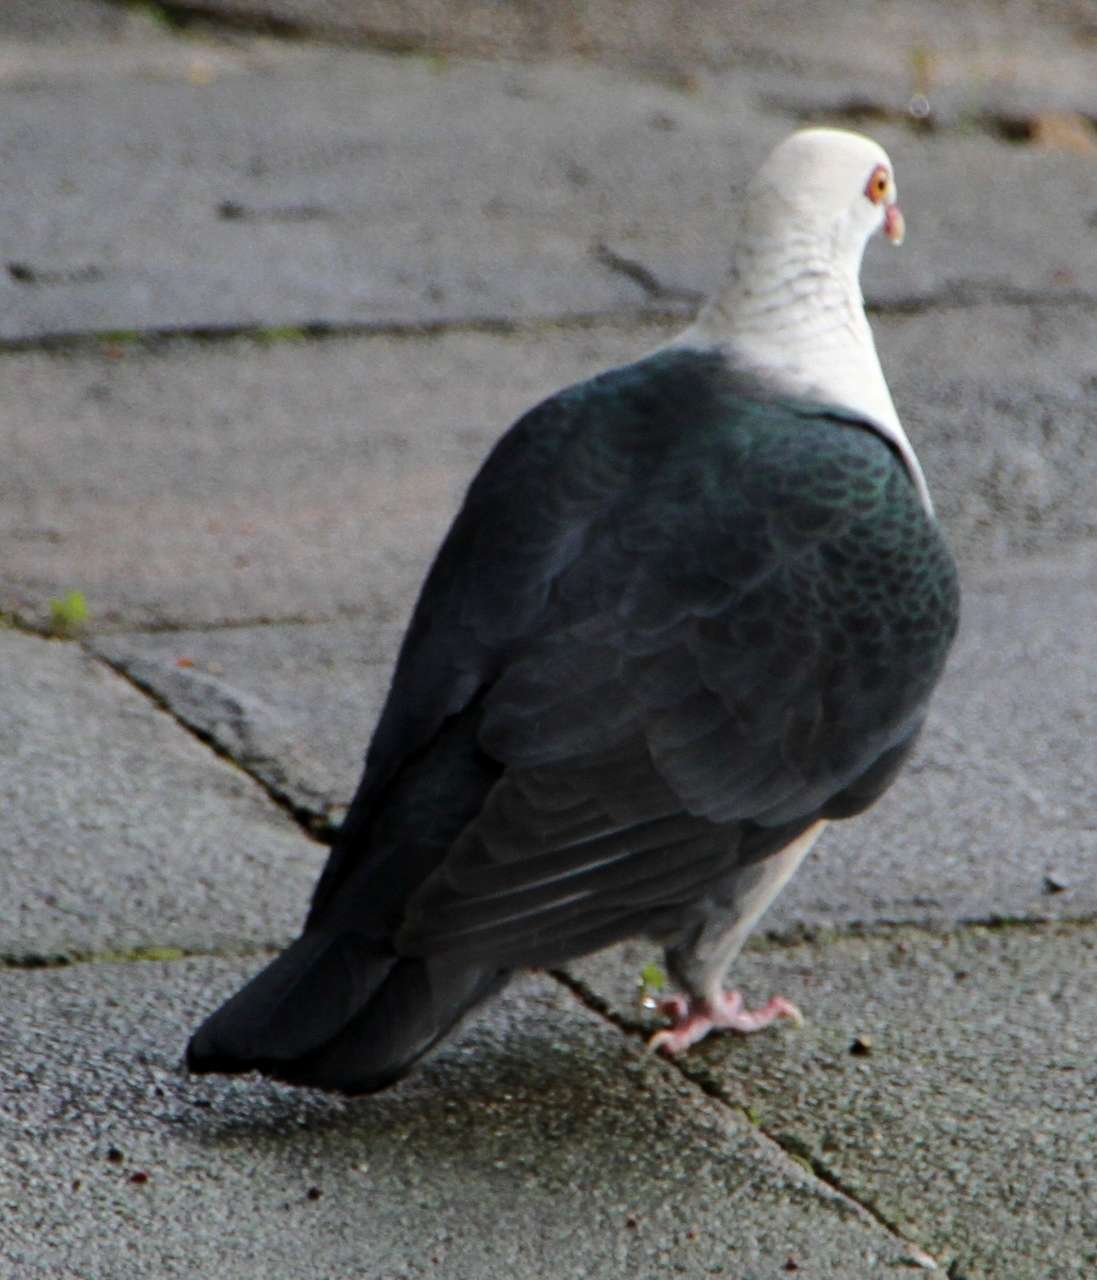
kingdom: Animalia
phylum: Chordata
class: Aves
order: Columbiformes
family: Columbidae
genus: Columba
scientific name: Columba leucomela
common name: White-headed pigeon
